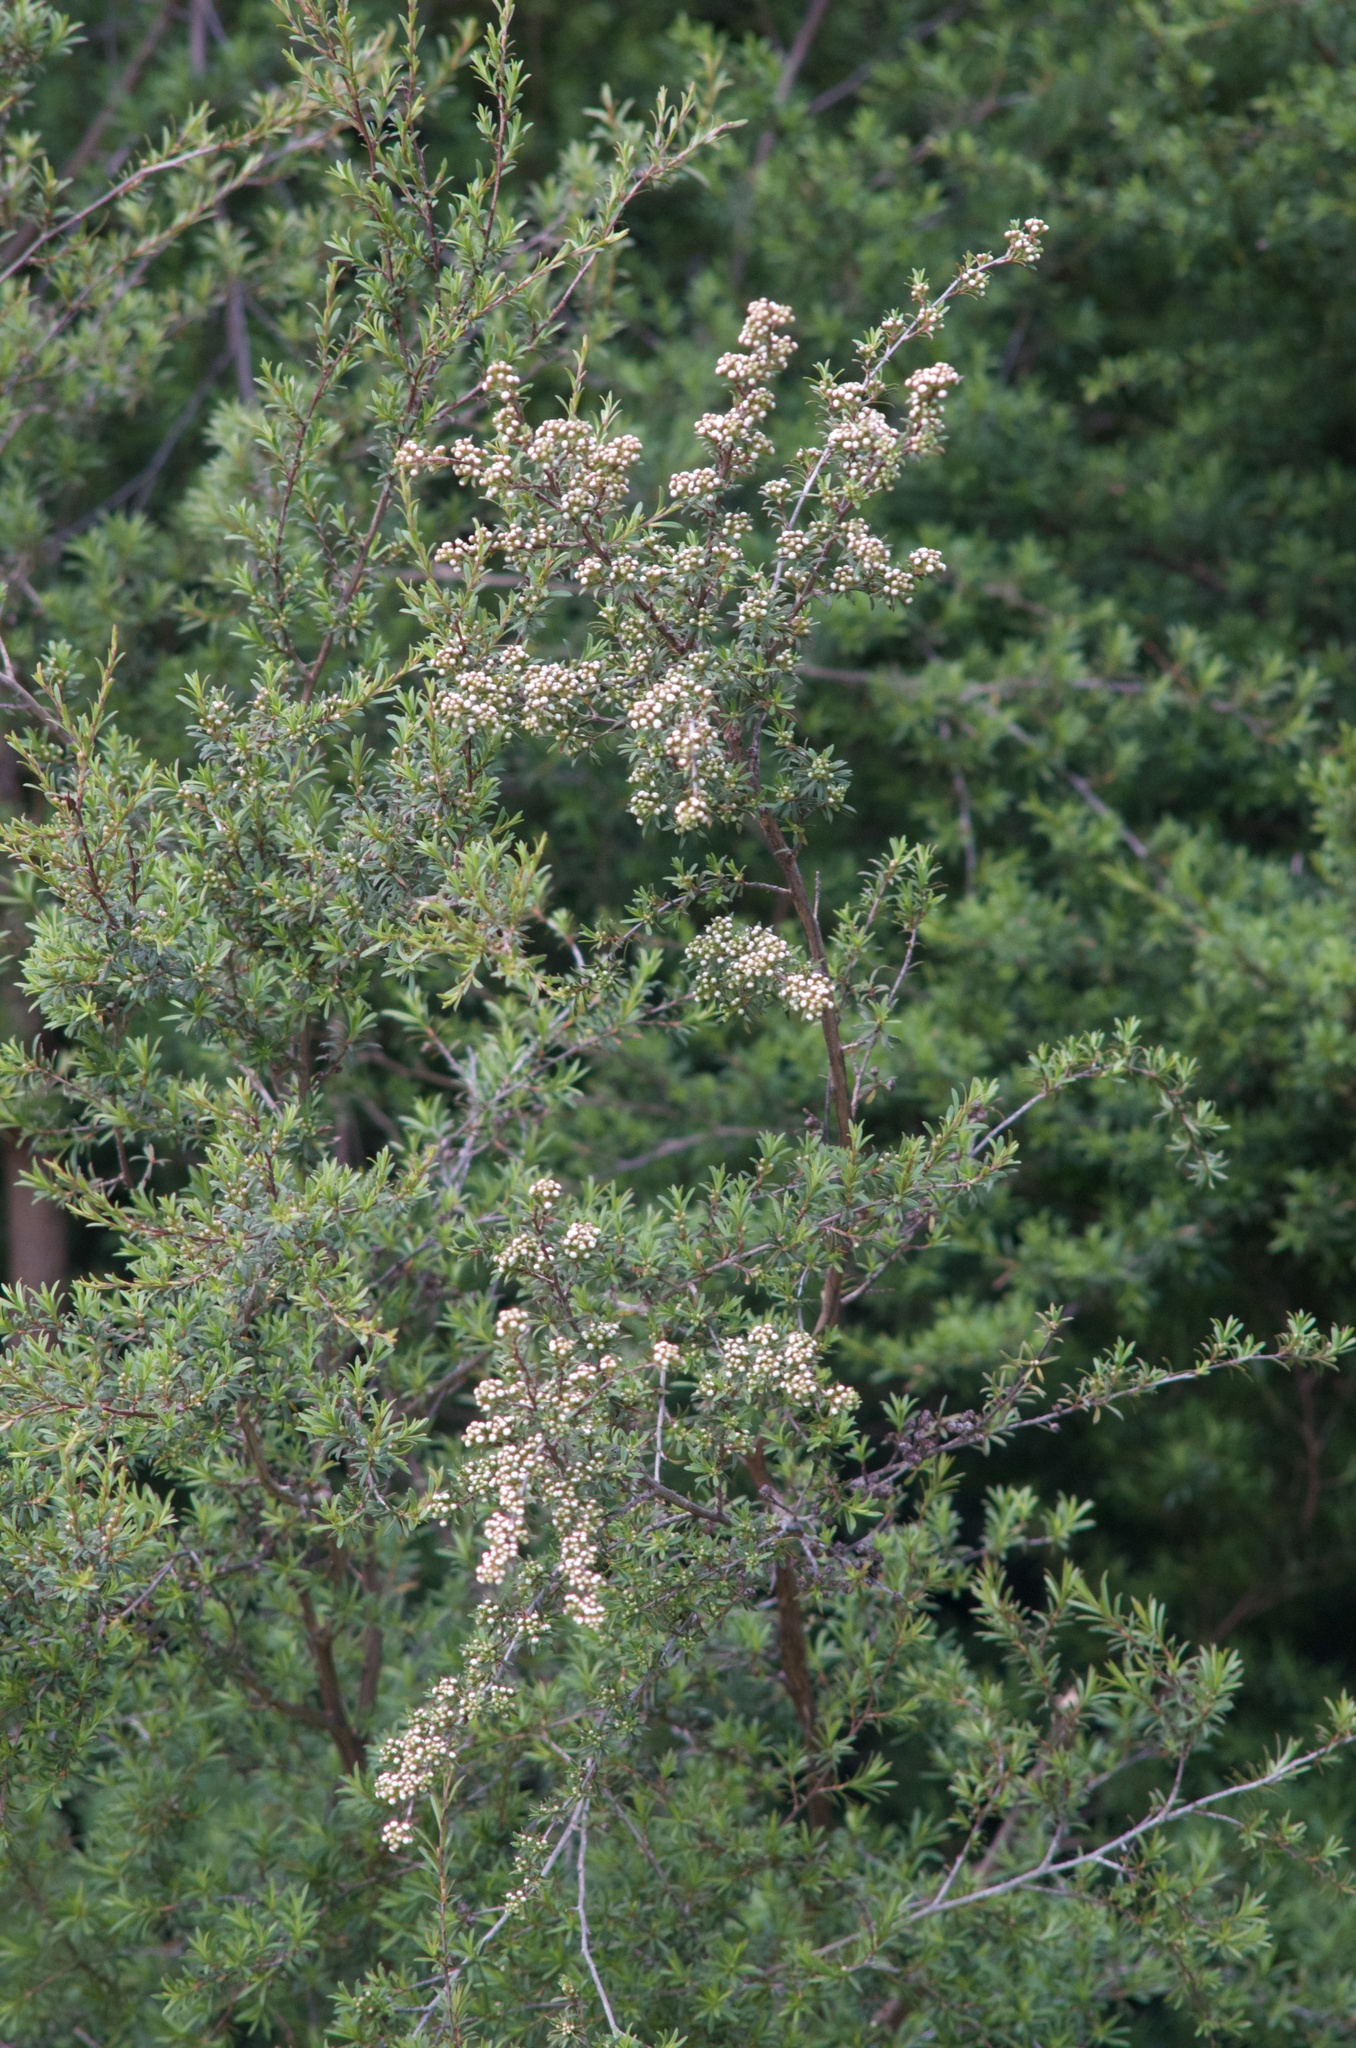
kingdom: Plantae
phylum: Tracheophyta
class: Magnoliopsida
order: Myrtales
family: Myrtaceae
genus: Kunzea
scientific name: Kunzea robusta
